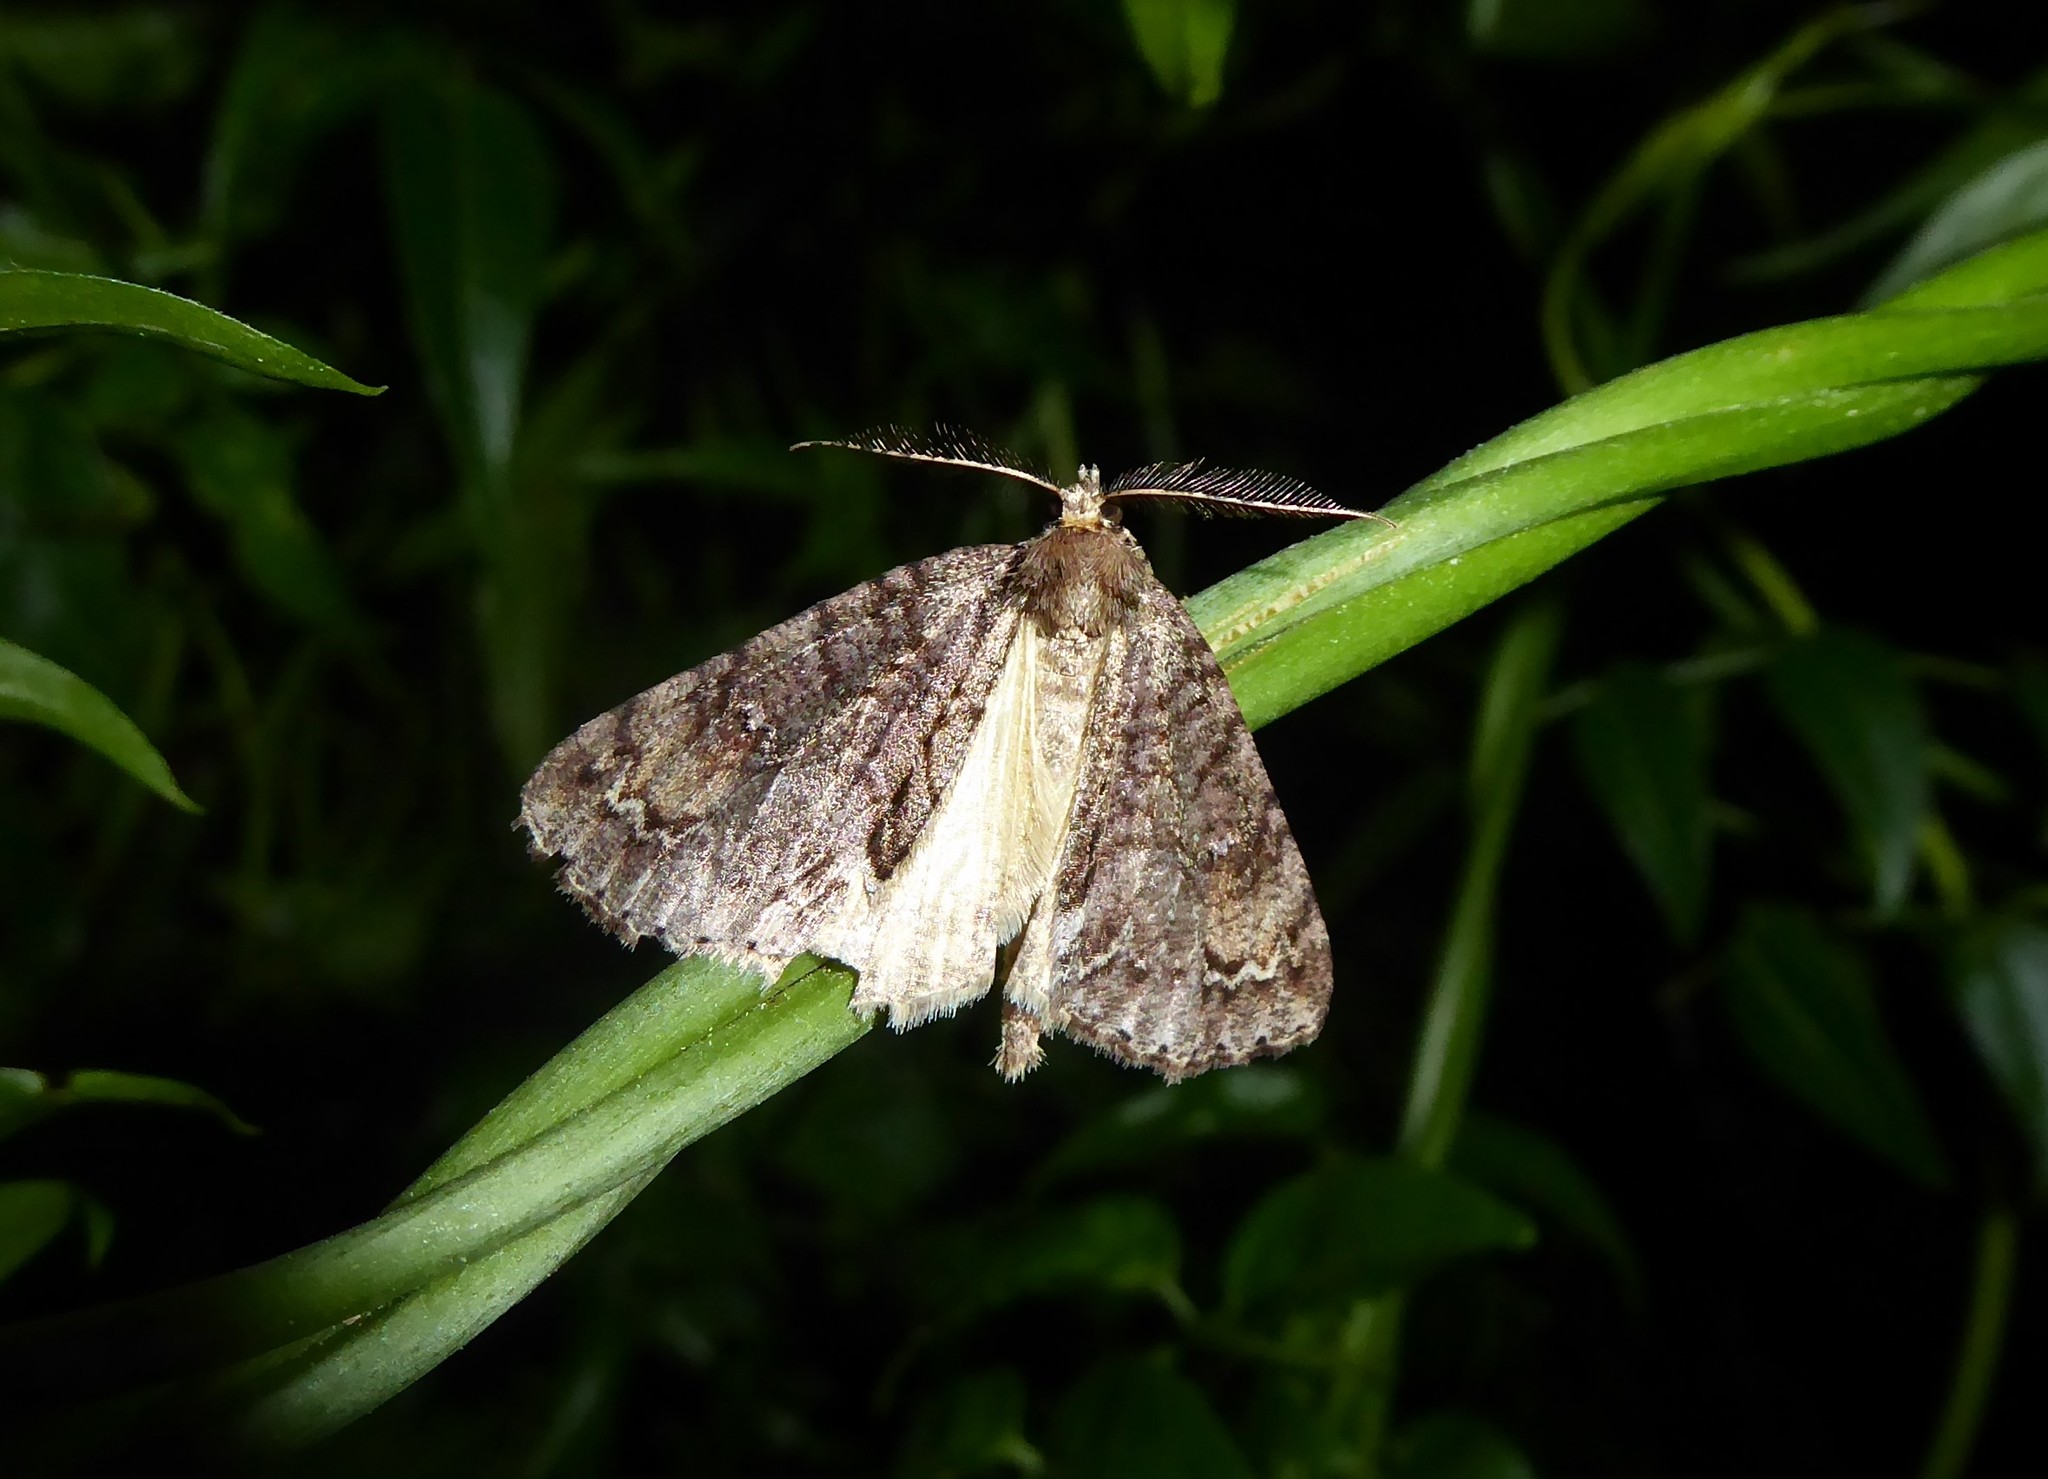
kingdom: Animalia
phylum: Arthropoda
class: Insecta
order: Lepidoptera
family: Geometridae
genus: Pseudocoremia
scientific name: Pseudocoremia suavis
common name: Common forest looper
